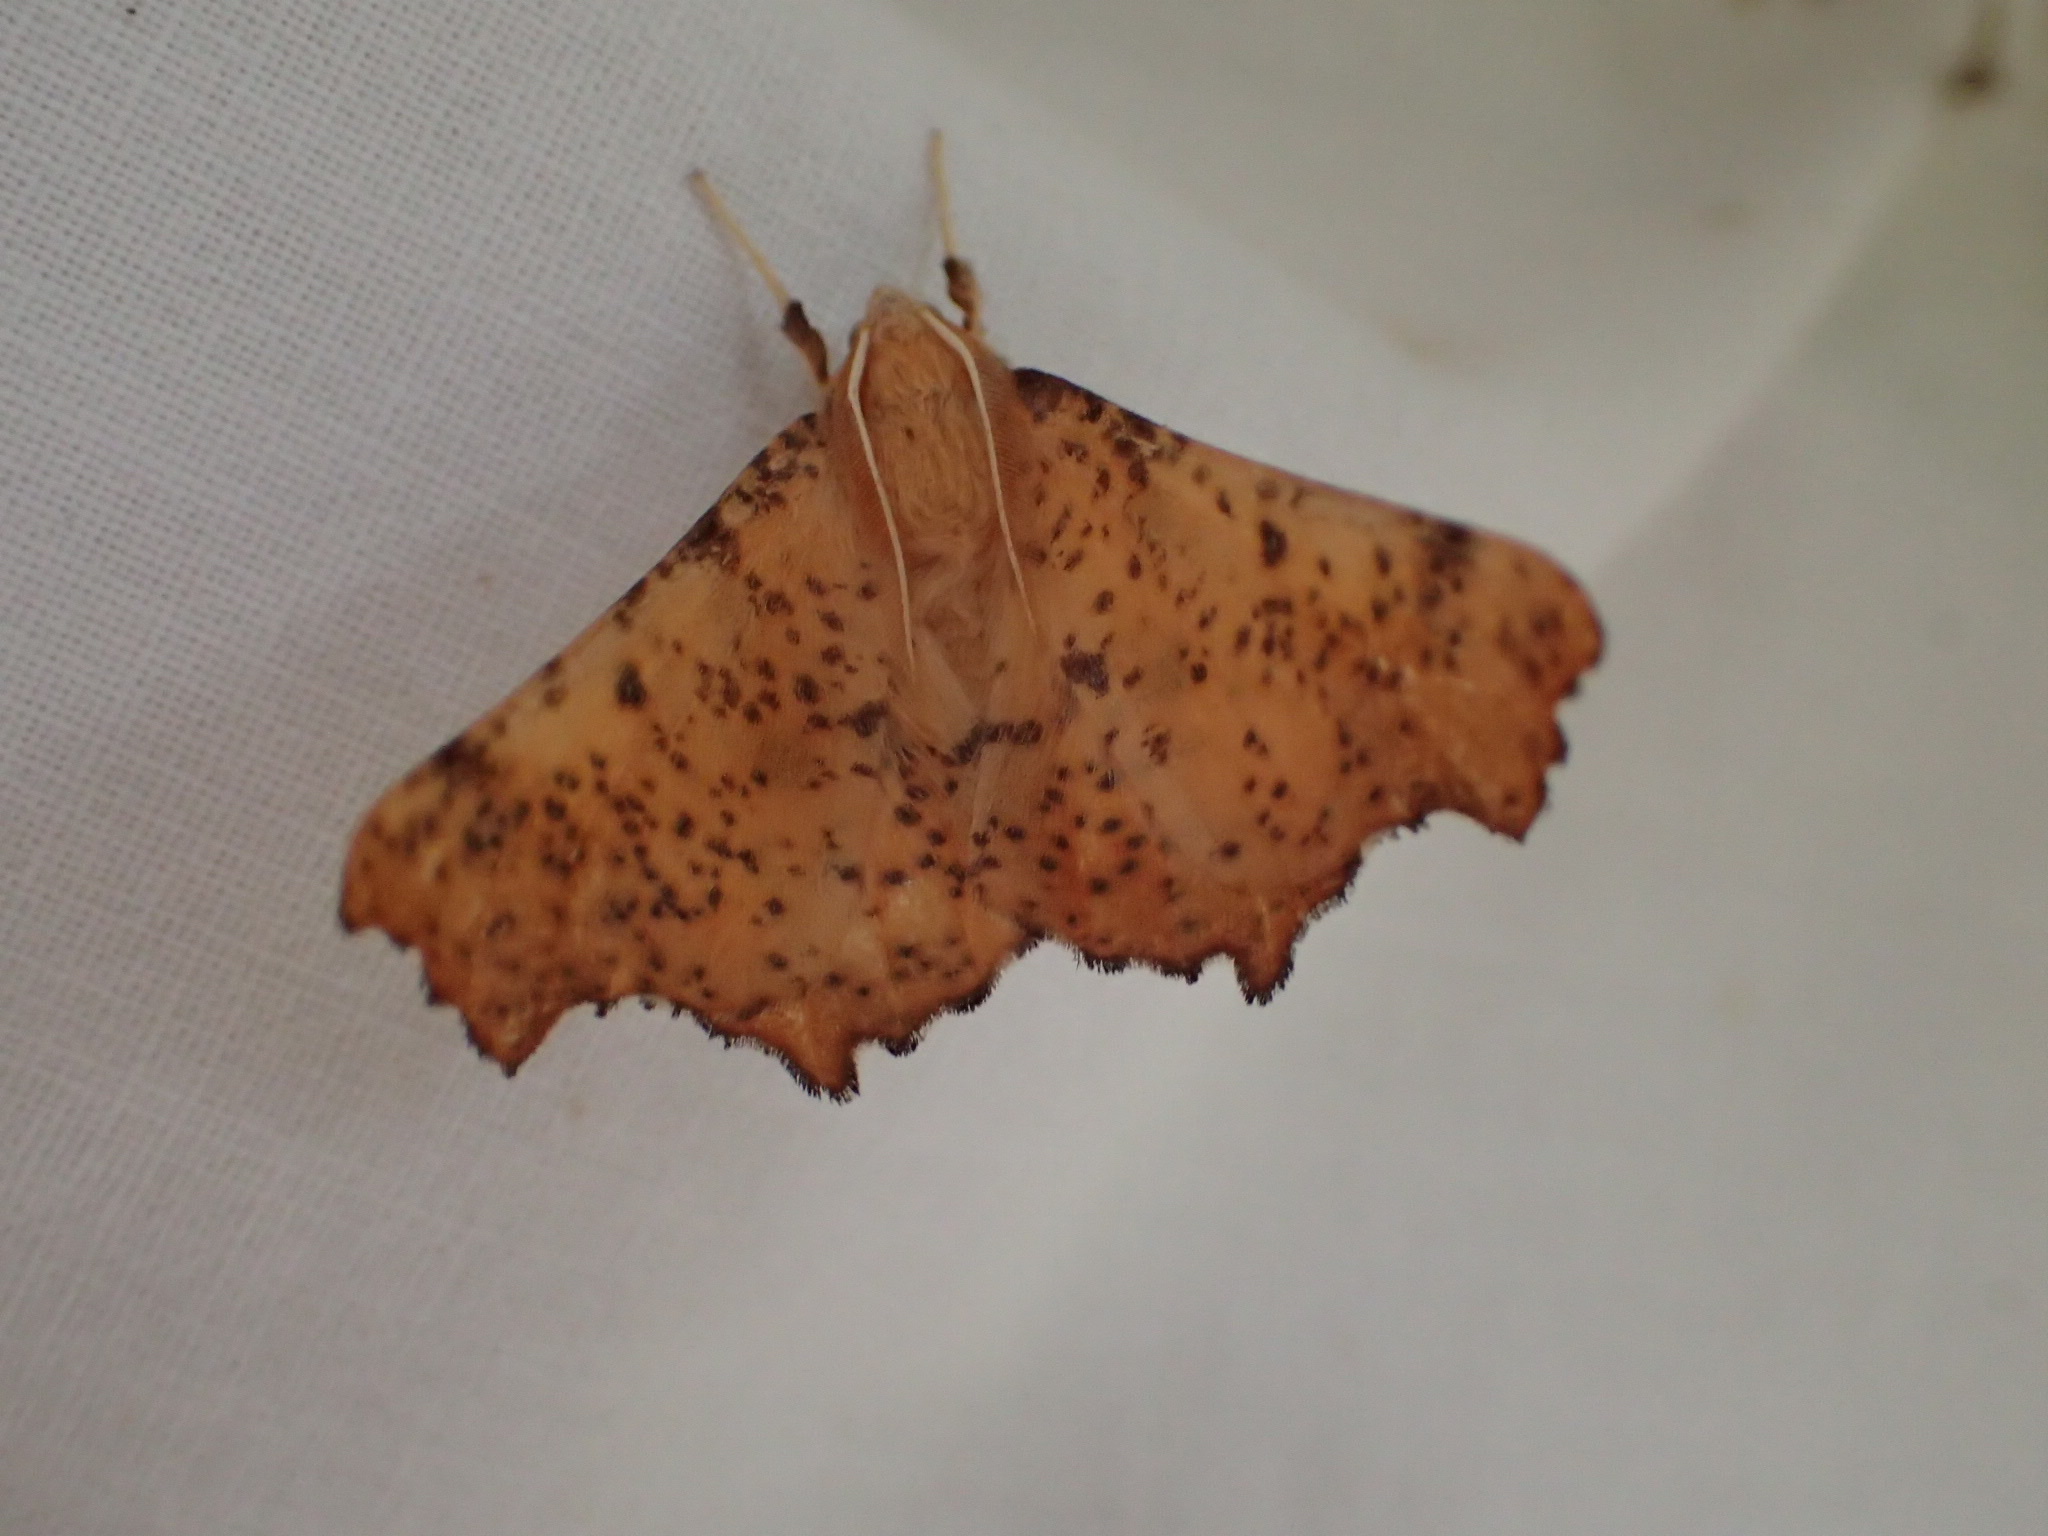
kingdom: Animalia
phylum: Arthropoda
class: Insecta
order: Lepidoptera
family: Geometridae
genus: Ennomos
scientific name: Ennomos magnaria
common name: Maple spanworm
